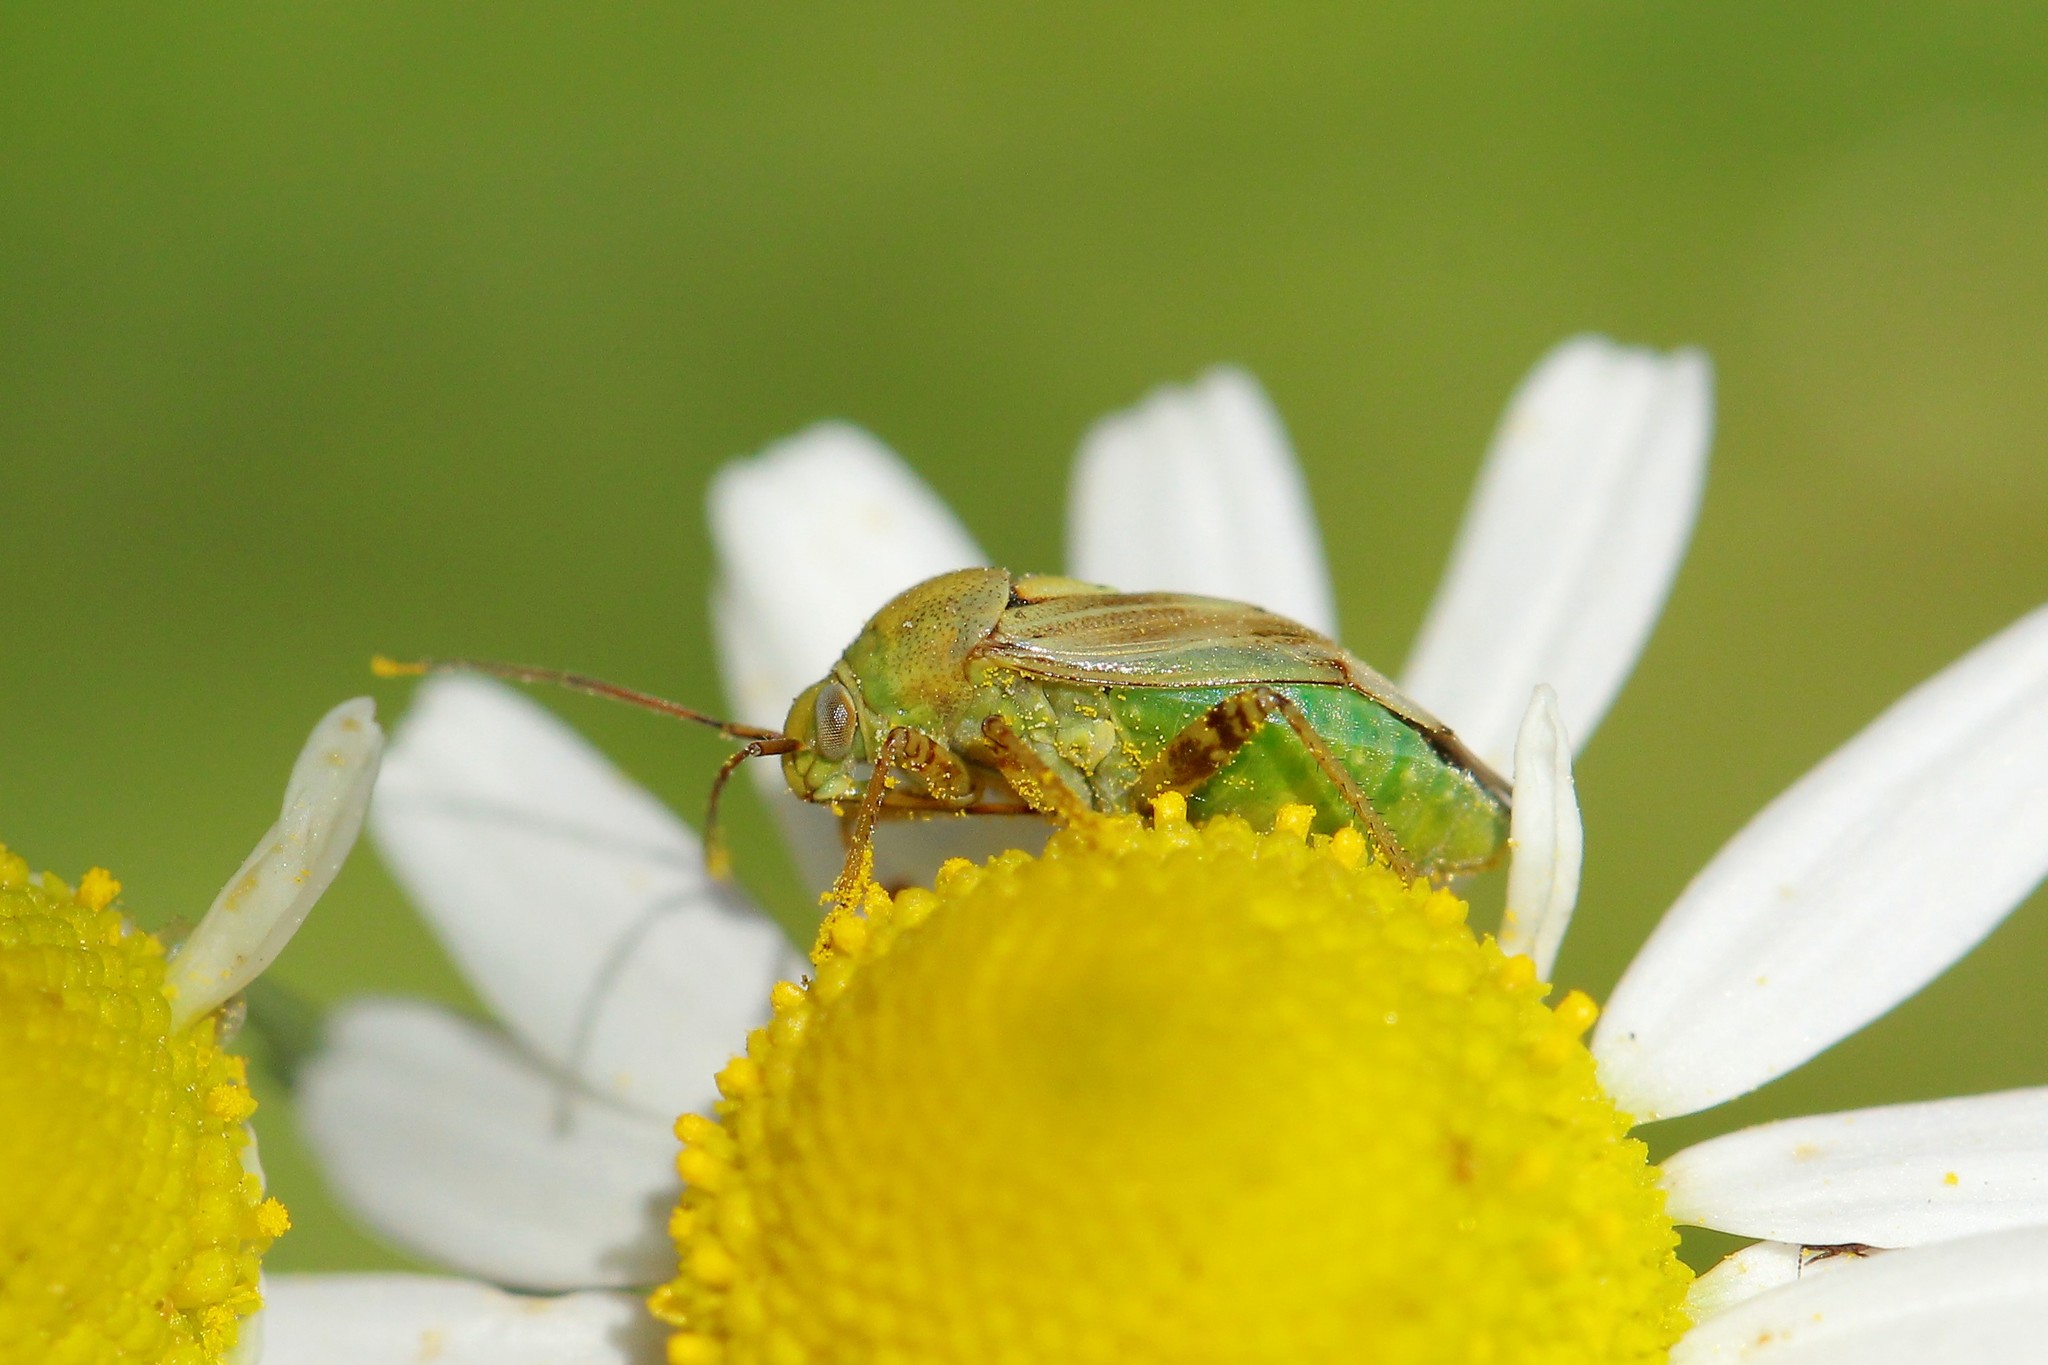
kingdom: Animalia
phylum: Arthropoda
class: Insecta
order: Hemiptera
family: Miridae
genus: Lygus
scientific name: Lygus gemellatus
